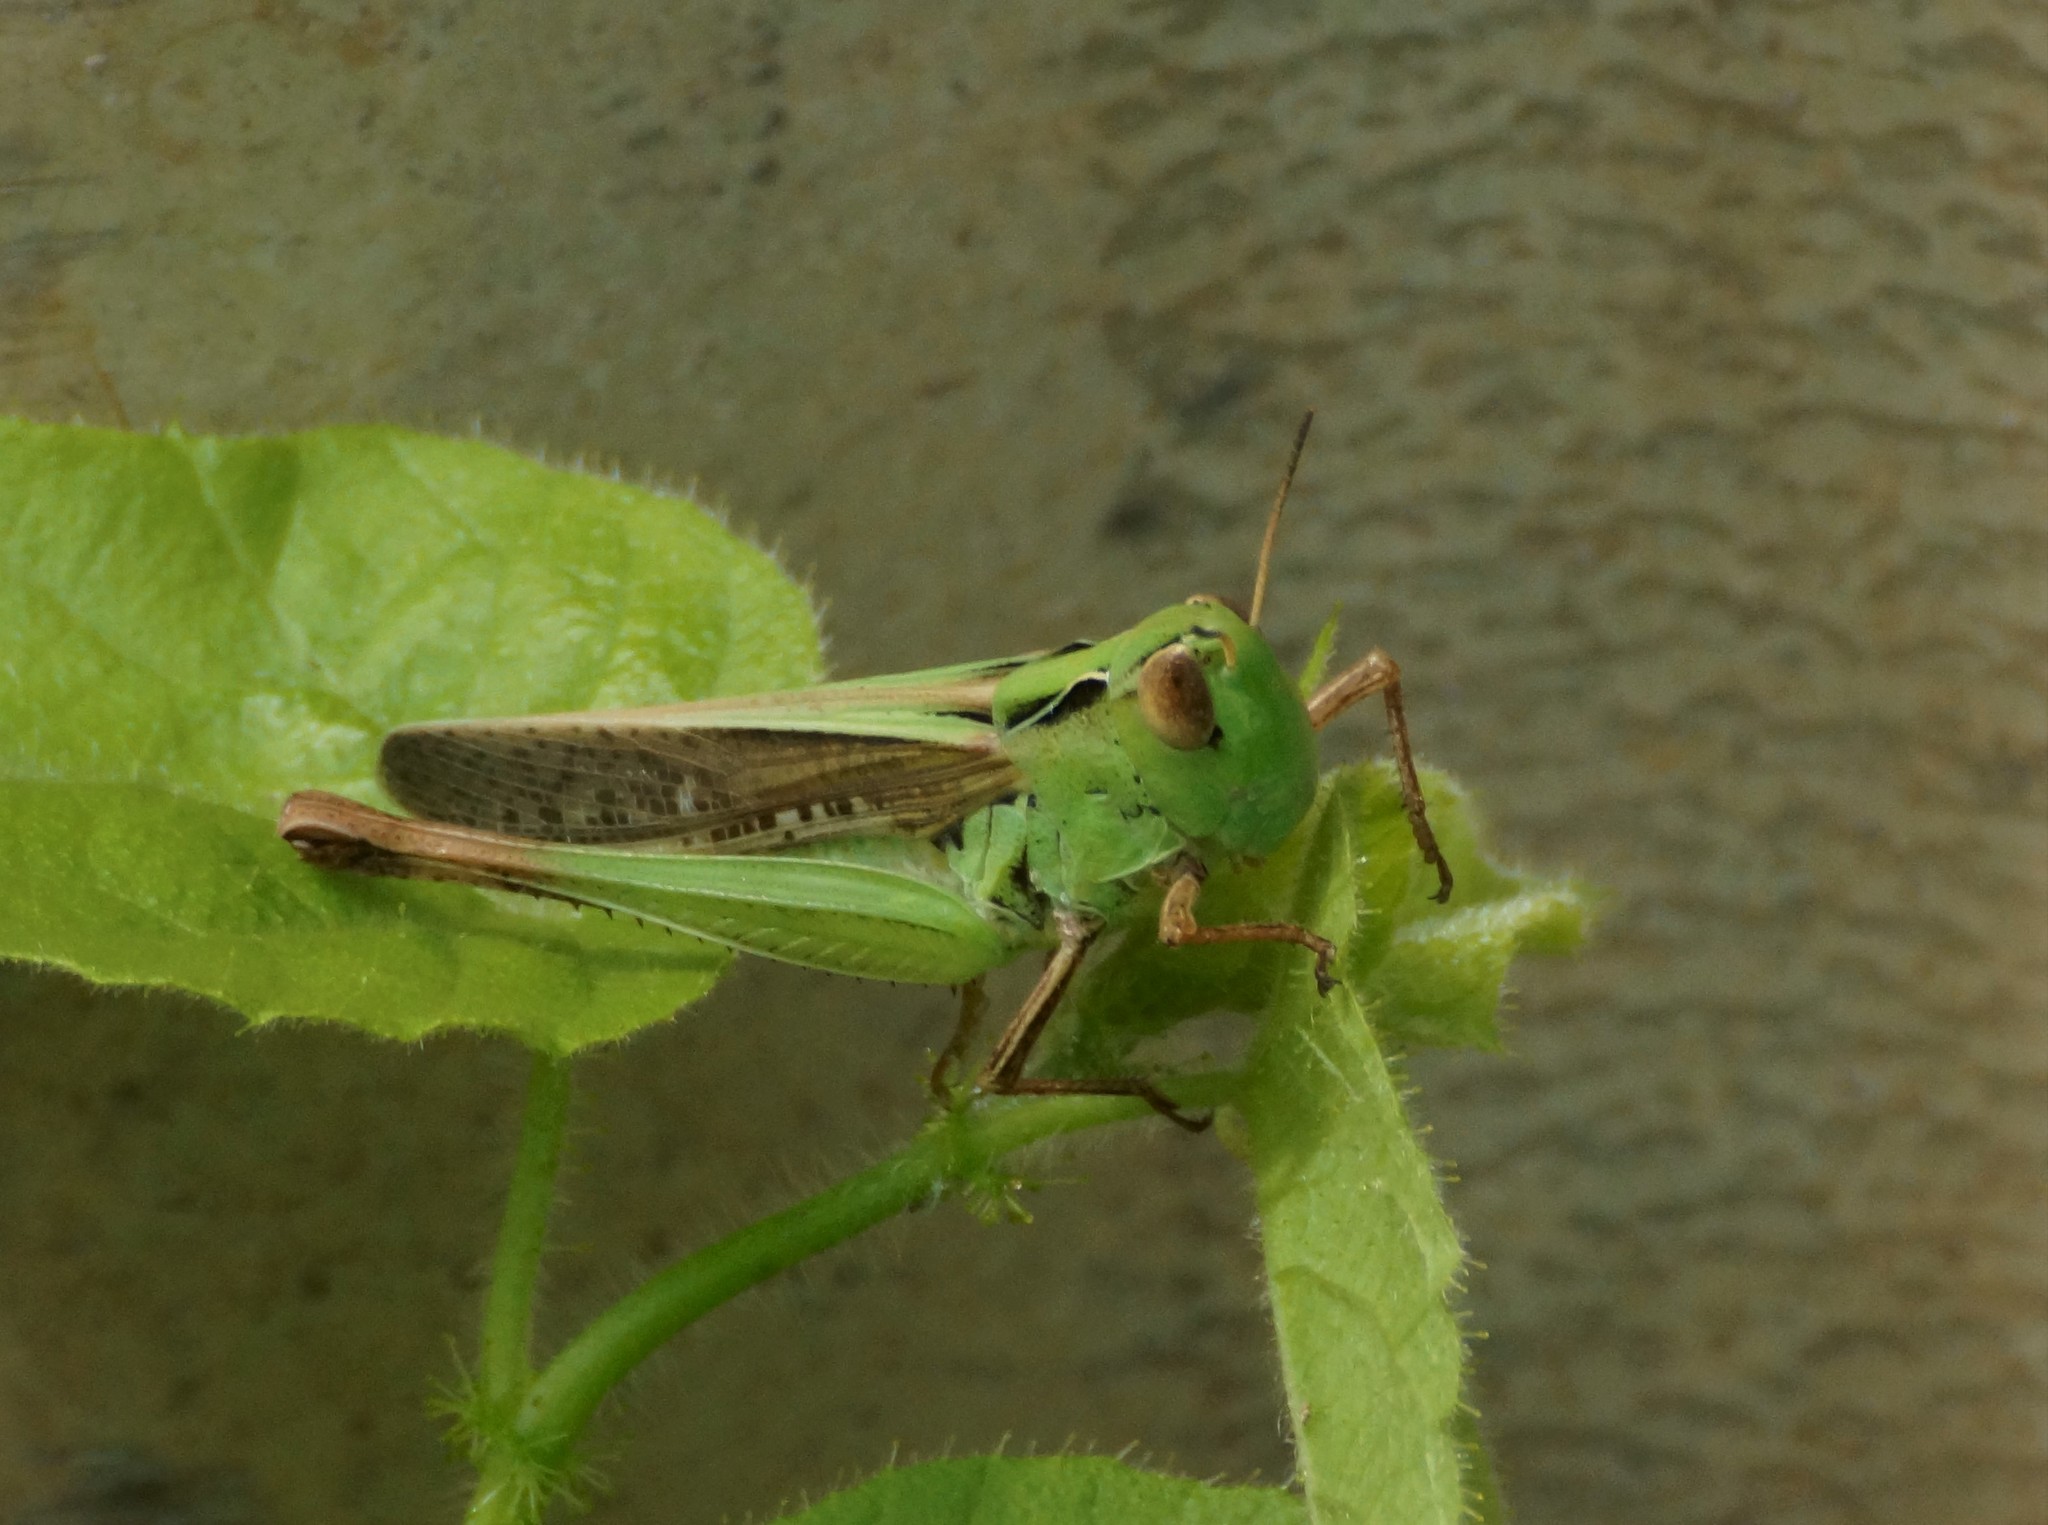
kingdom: Animalia
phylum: Arthropoda
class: Insecta
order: Orthoptera
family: Acrididae
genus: Caledia
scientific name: Caledia captiva
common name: Caledia
